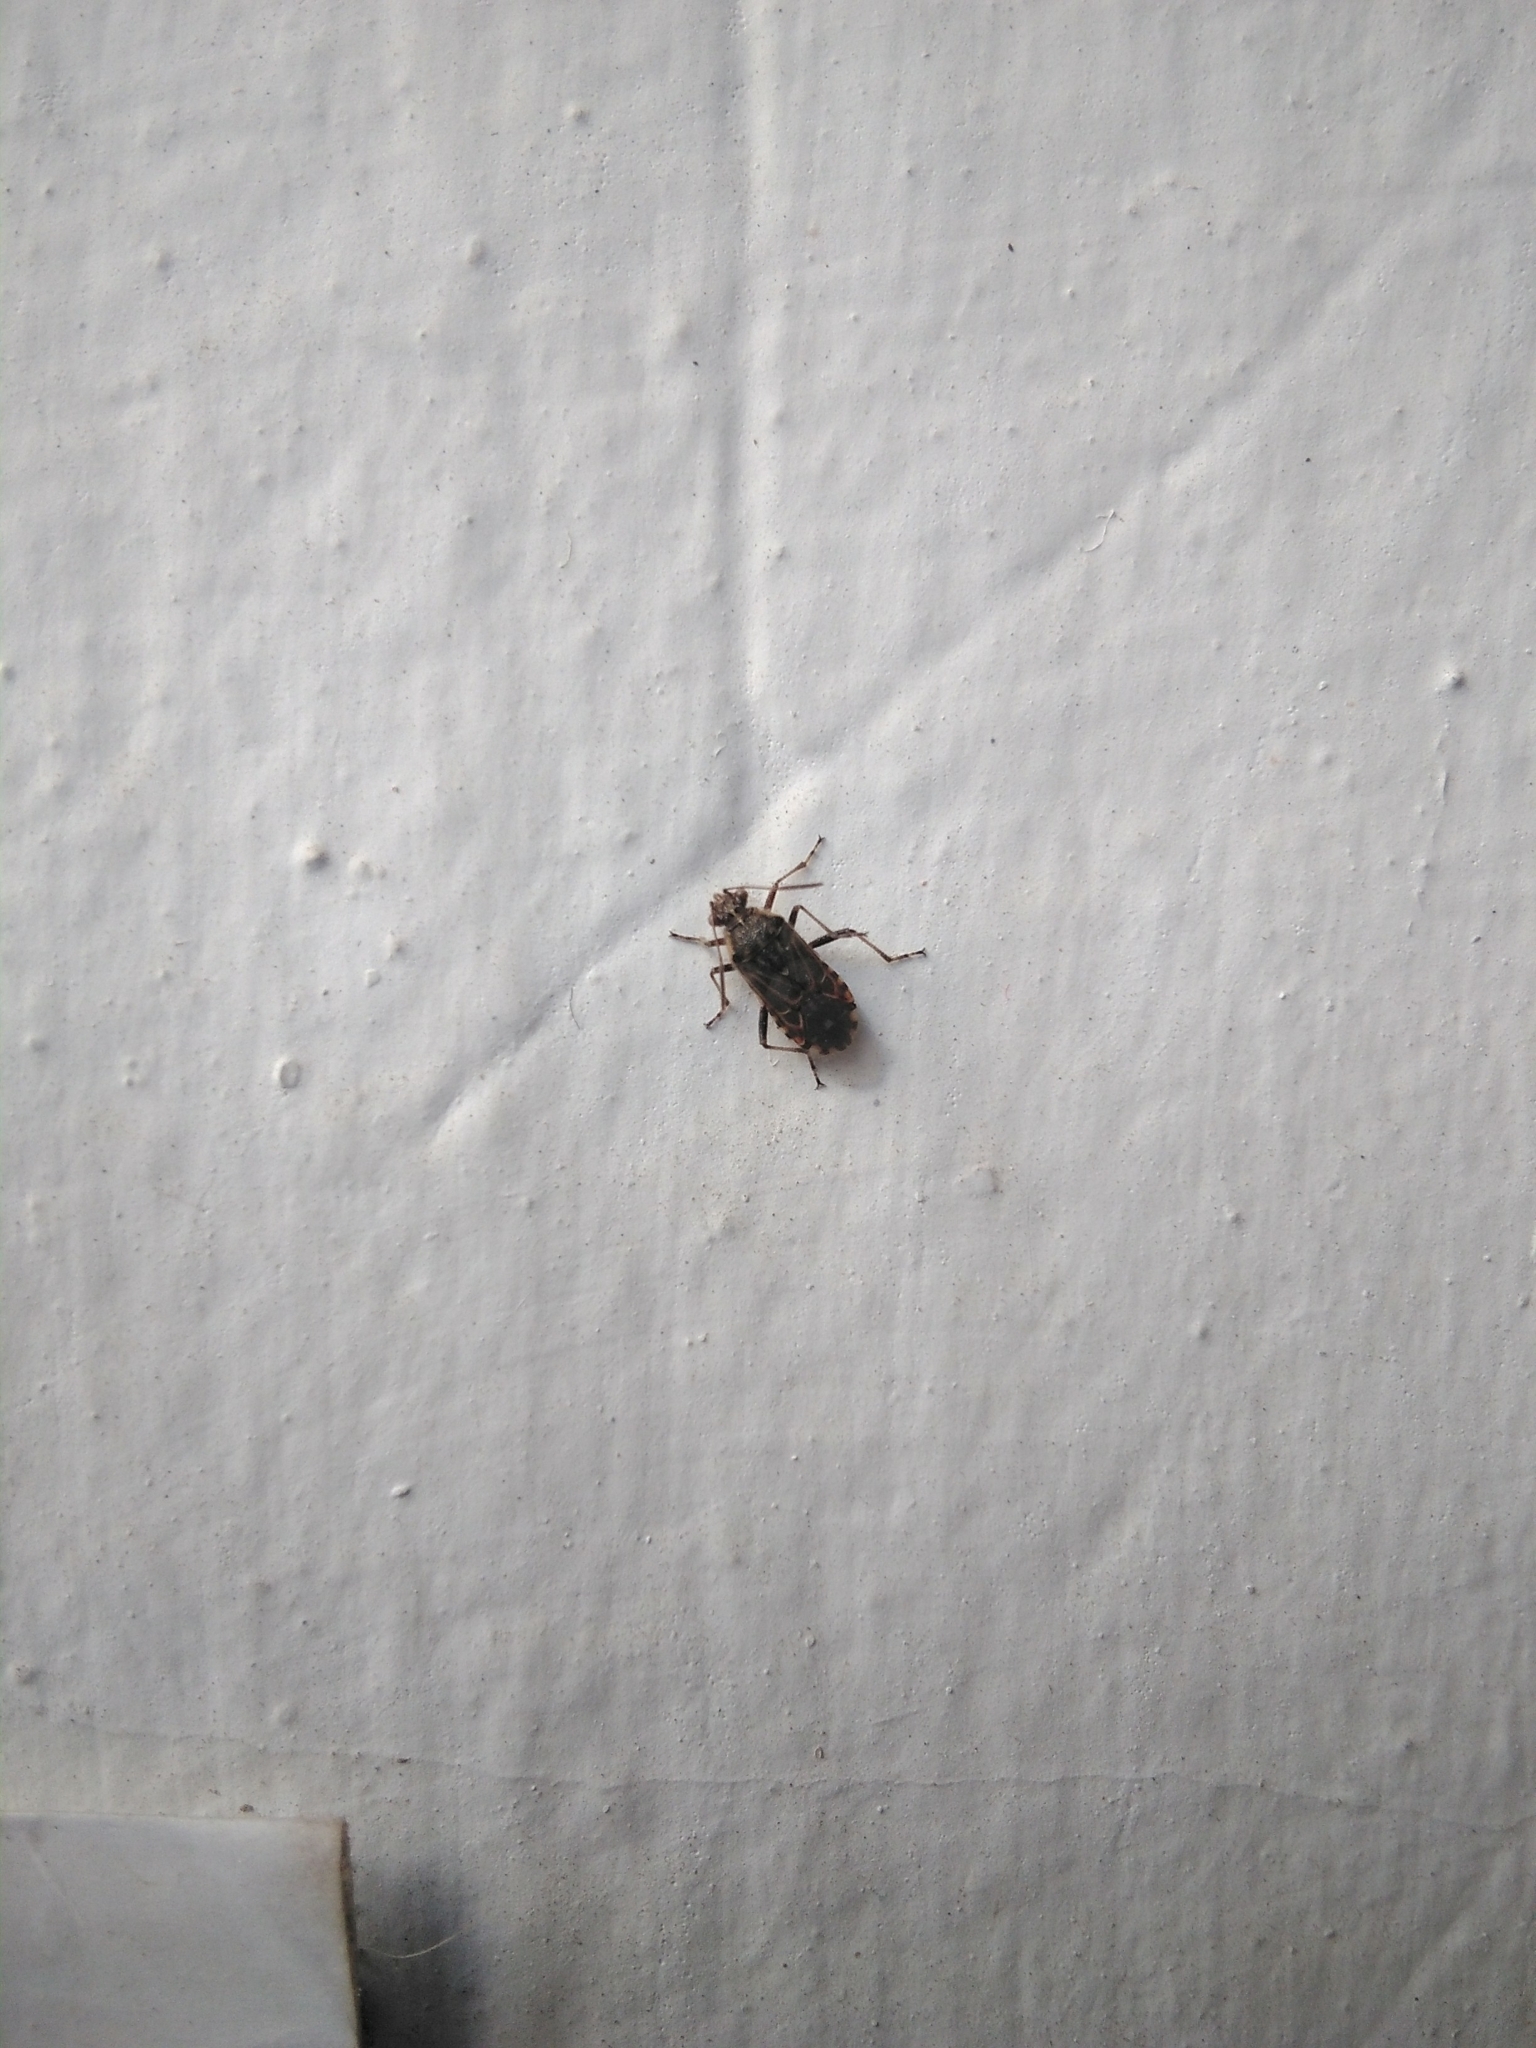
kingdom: Animalia
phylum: Arthropoda
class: Insecta
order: Hemiptera
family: Rhopalidae
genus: Liorhyssus
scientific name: Liorhyssus hyalinus
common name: Scentless plant bug
